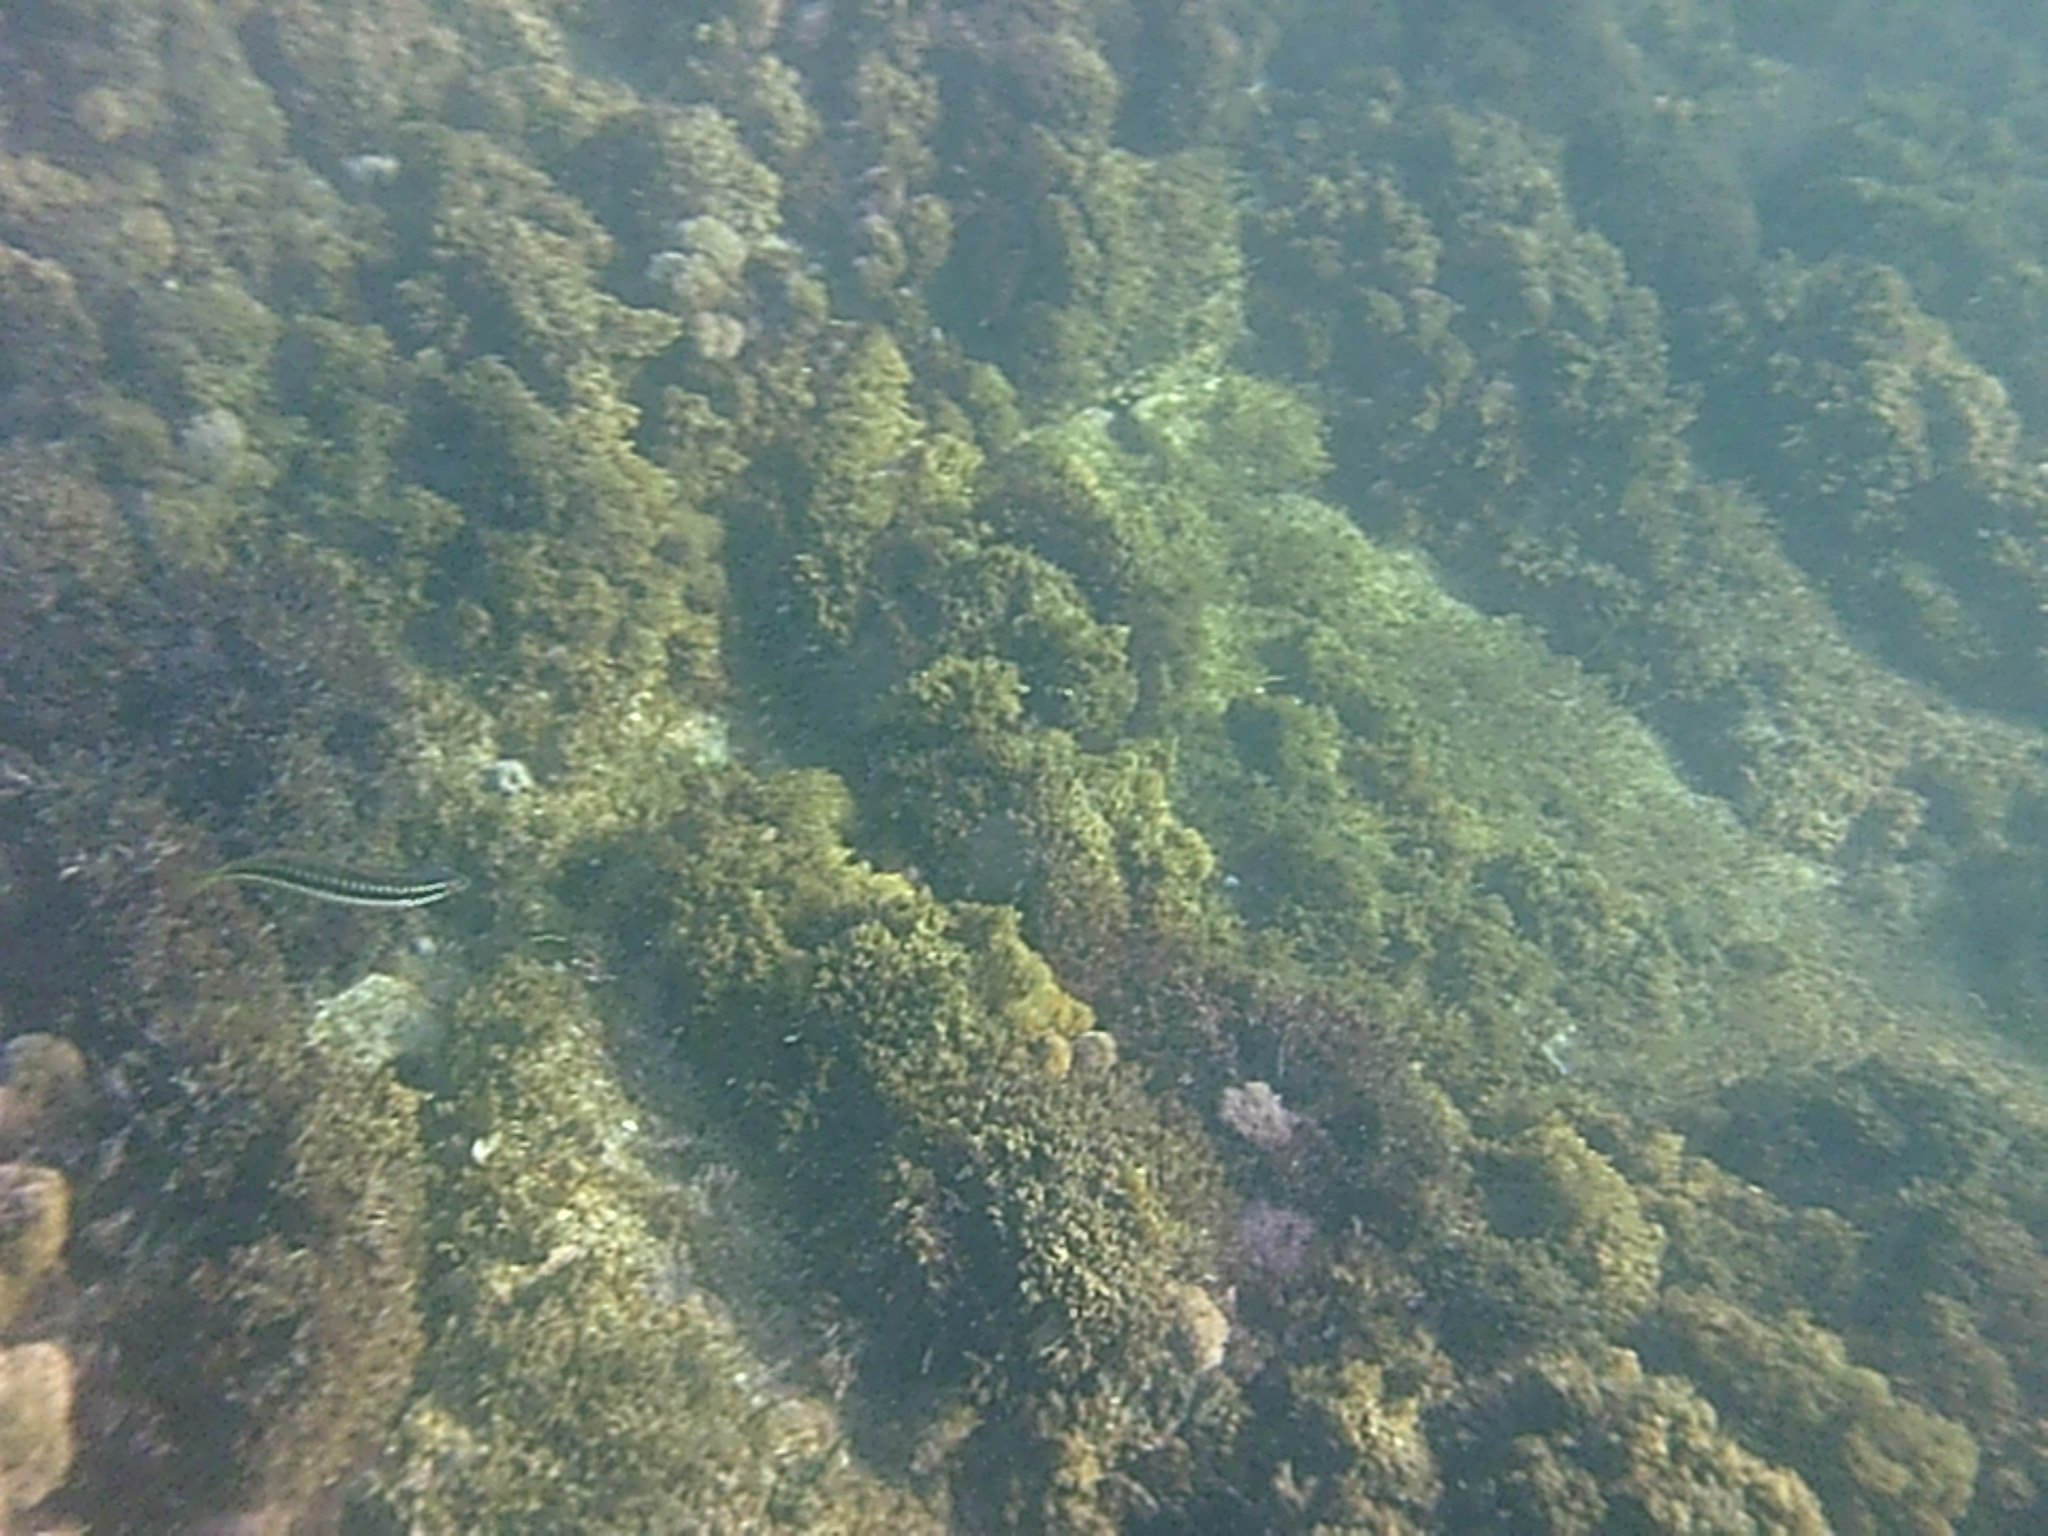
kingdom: Animalia
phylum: Chordata
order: Perciformes
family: Labridae
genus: Coris
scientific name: Coris julis
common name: Rainbow wrasse
